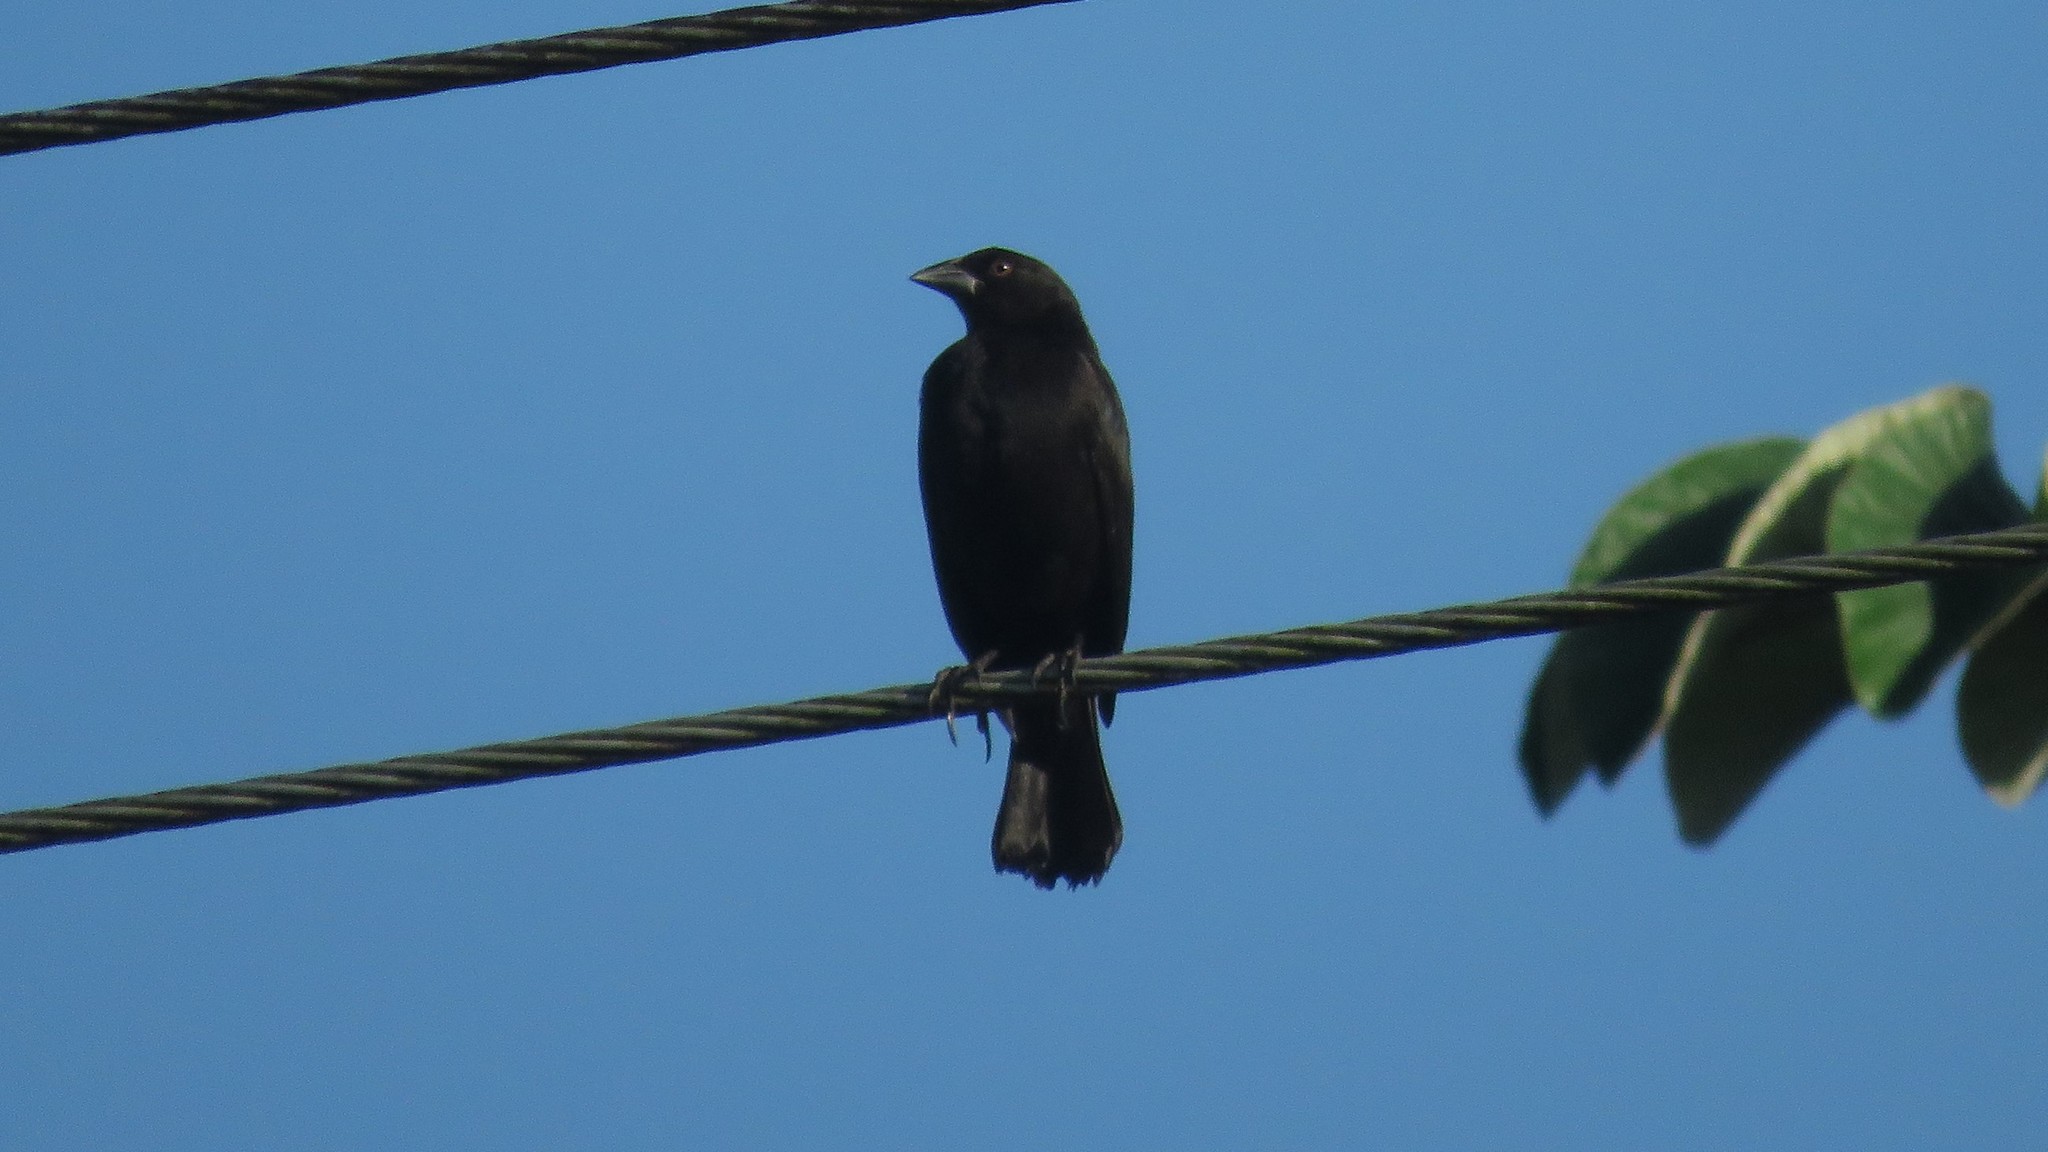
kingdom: Animalia
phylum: Chordata
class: Aves
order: Passeriformes
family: Icteridae
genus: Molothrus
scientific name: Molothrus aeneus
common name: Bronzed cowbird
